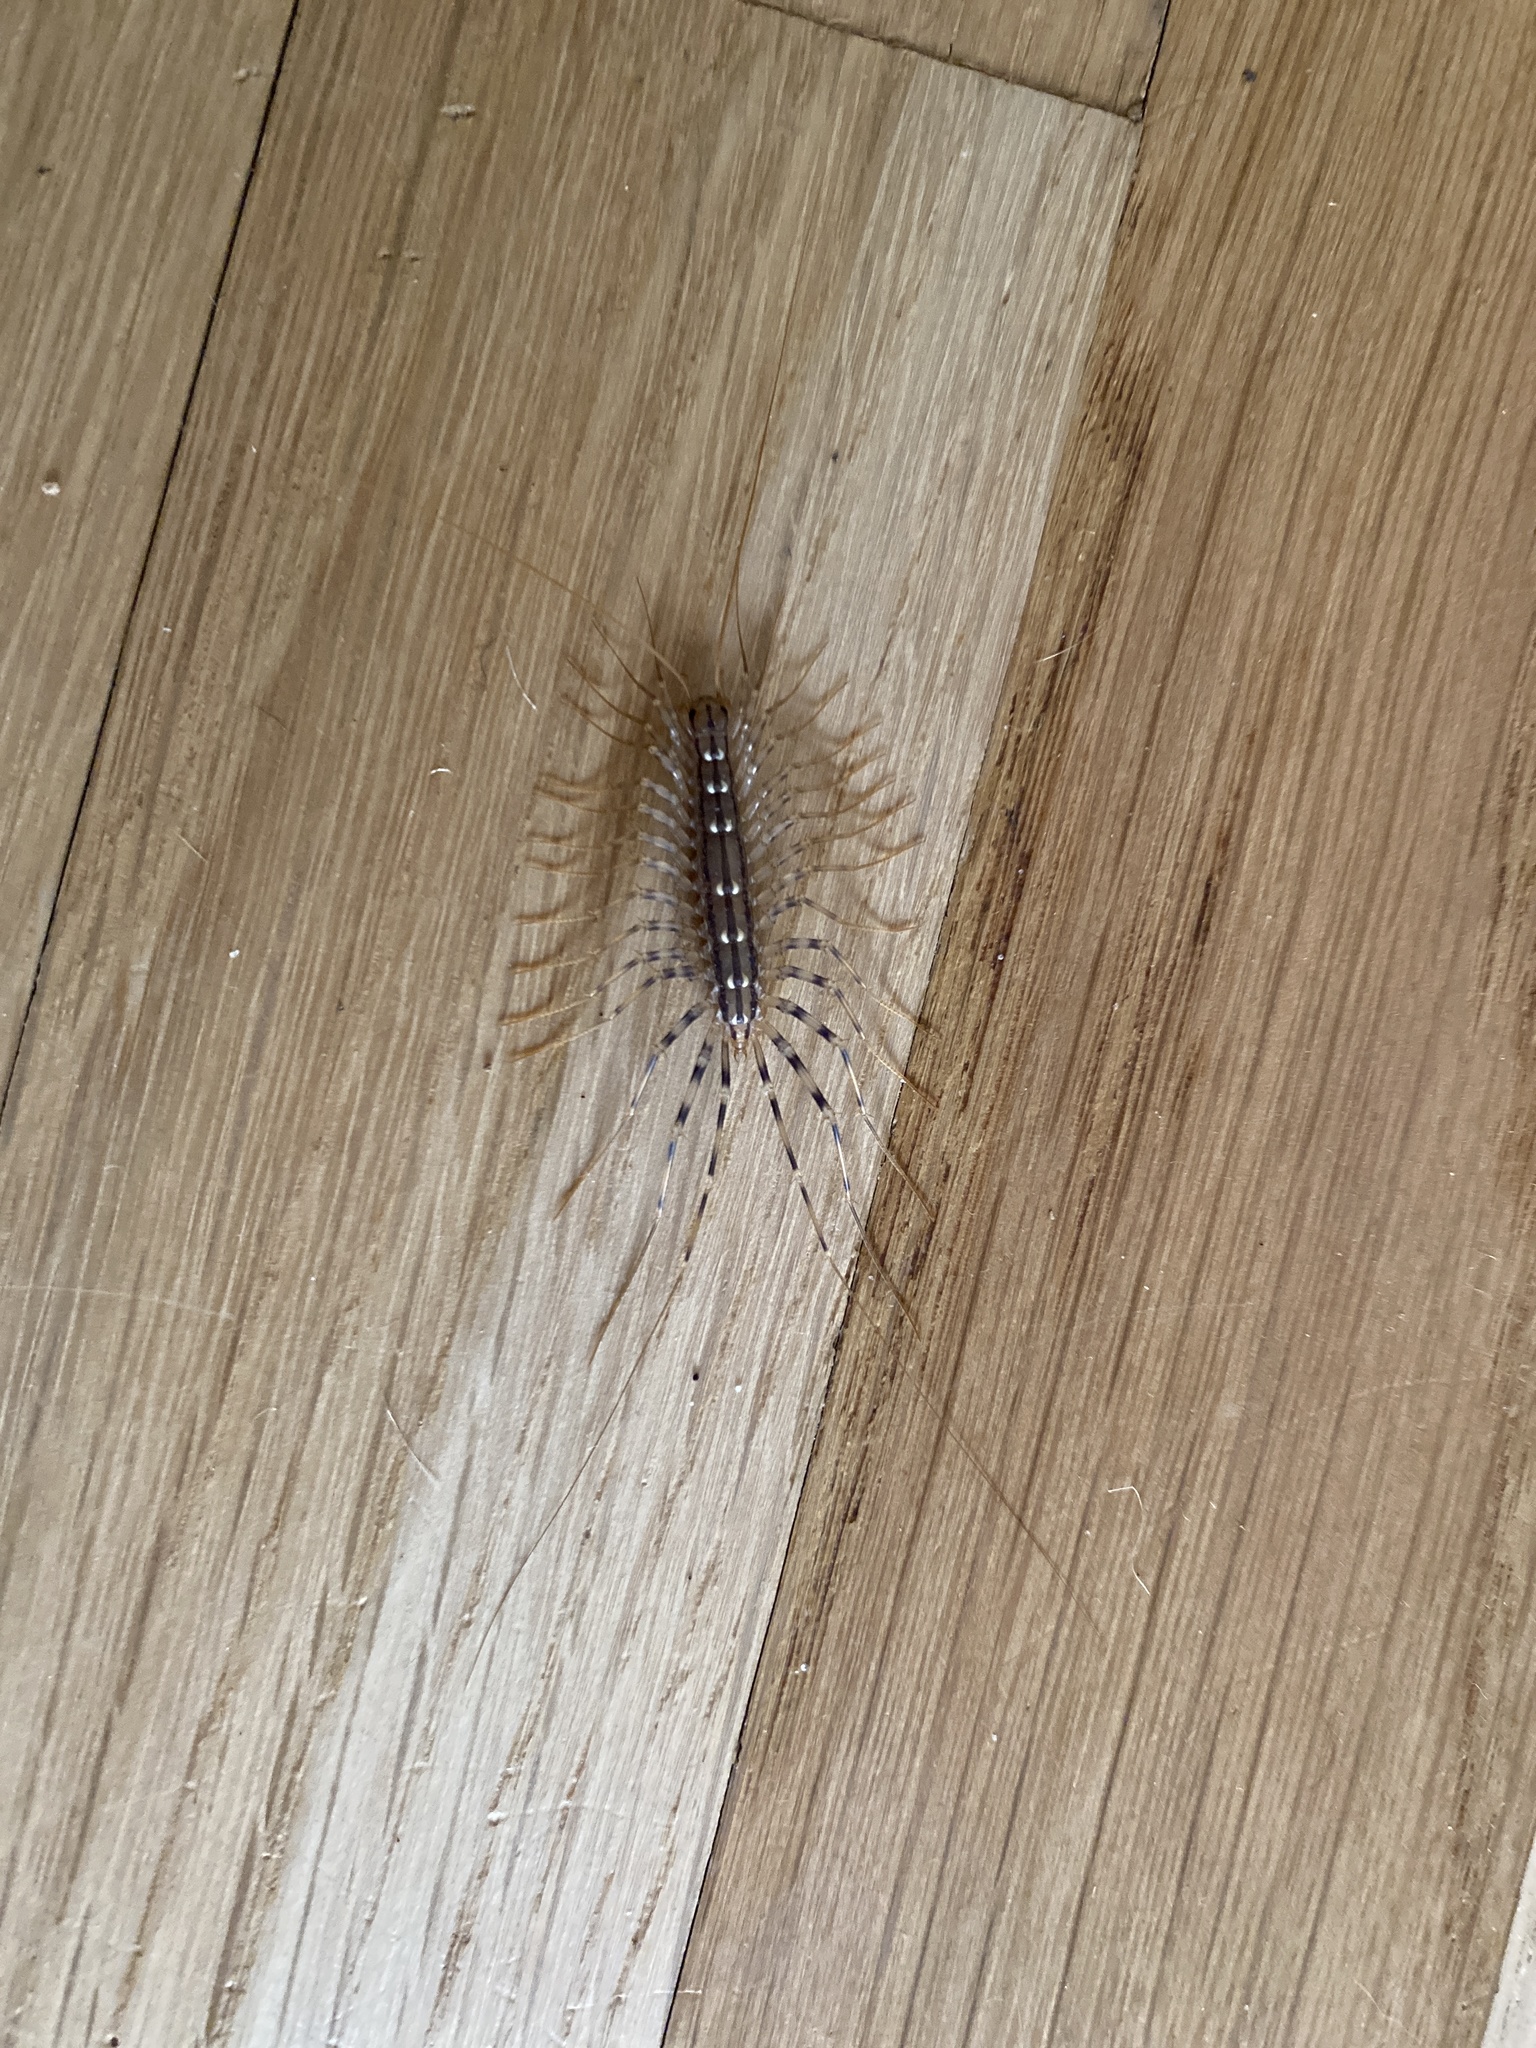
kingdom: Animalia
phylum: Arthropoda
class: Chilopoda
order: Scutigeromorpha
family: Scutigeridae
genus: Scutigera
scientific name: Scutigera coleoptrata
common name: House centipede
